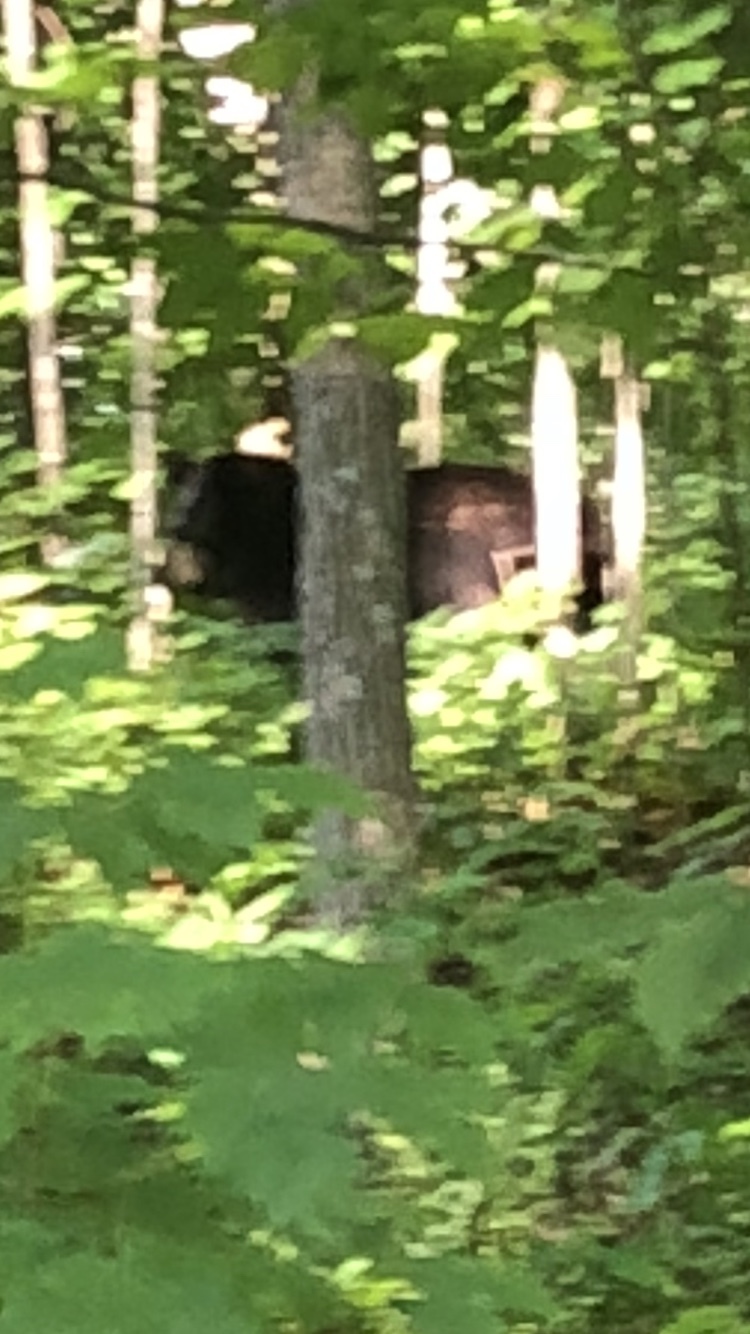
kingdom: Animalia
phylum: Chordata
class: Mammalia
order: Carnivora
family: Ursidae
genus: Ursus
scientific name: Ursus americanus
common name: American black bear
